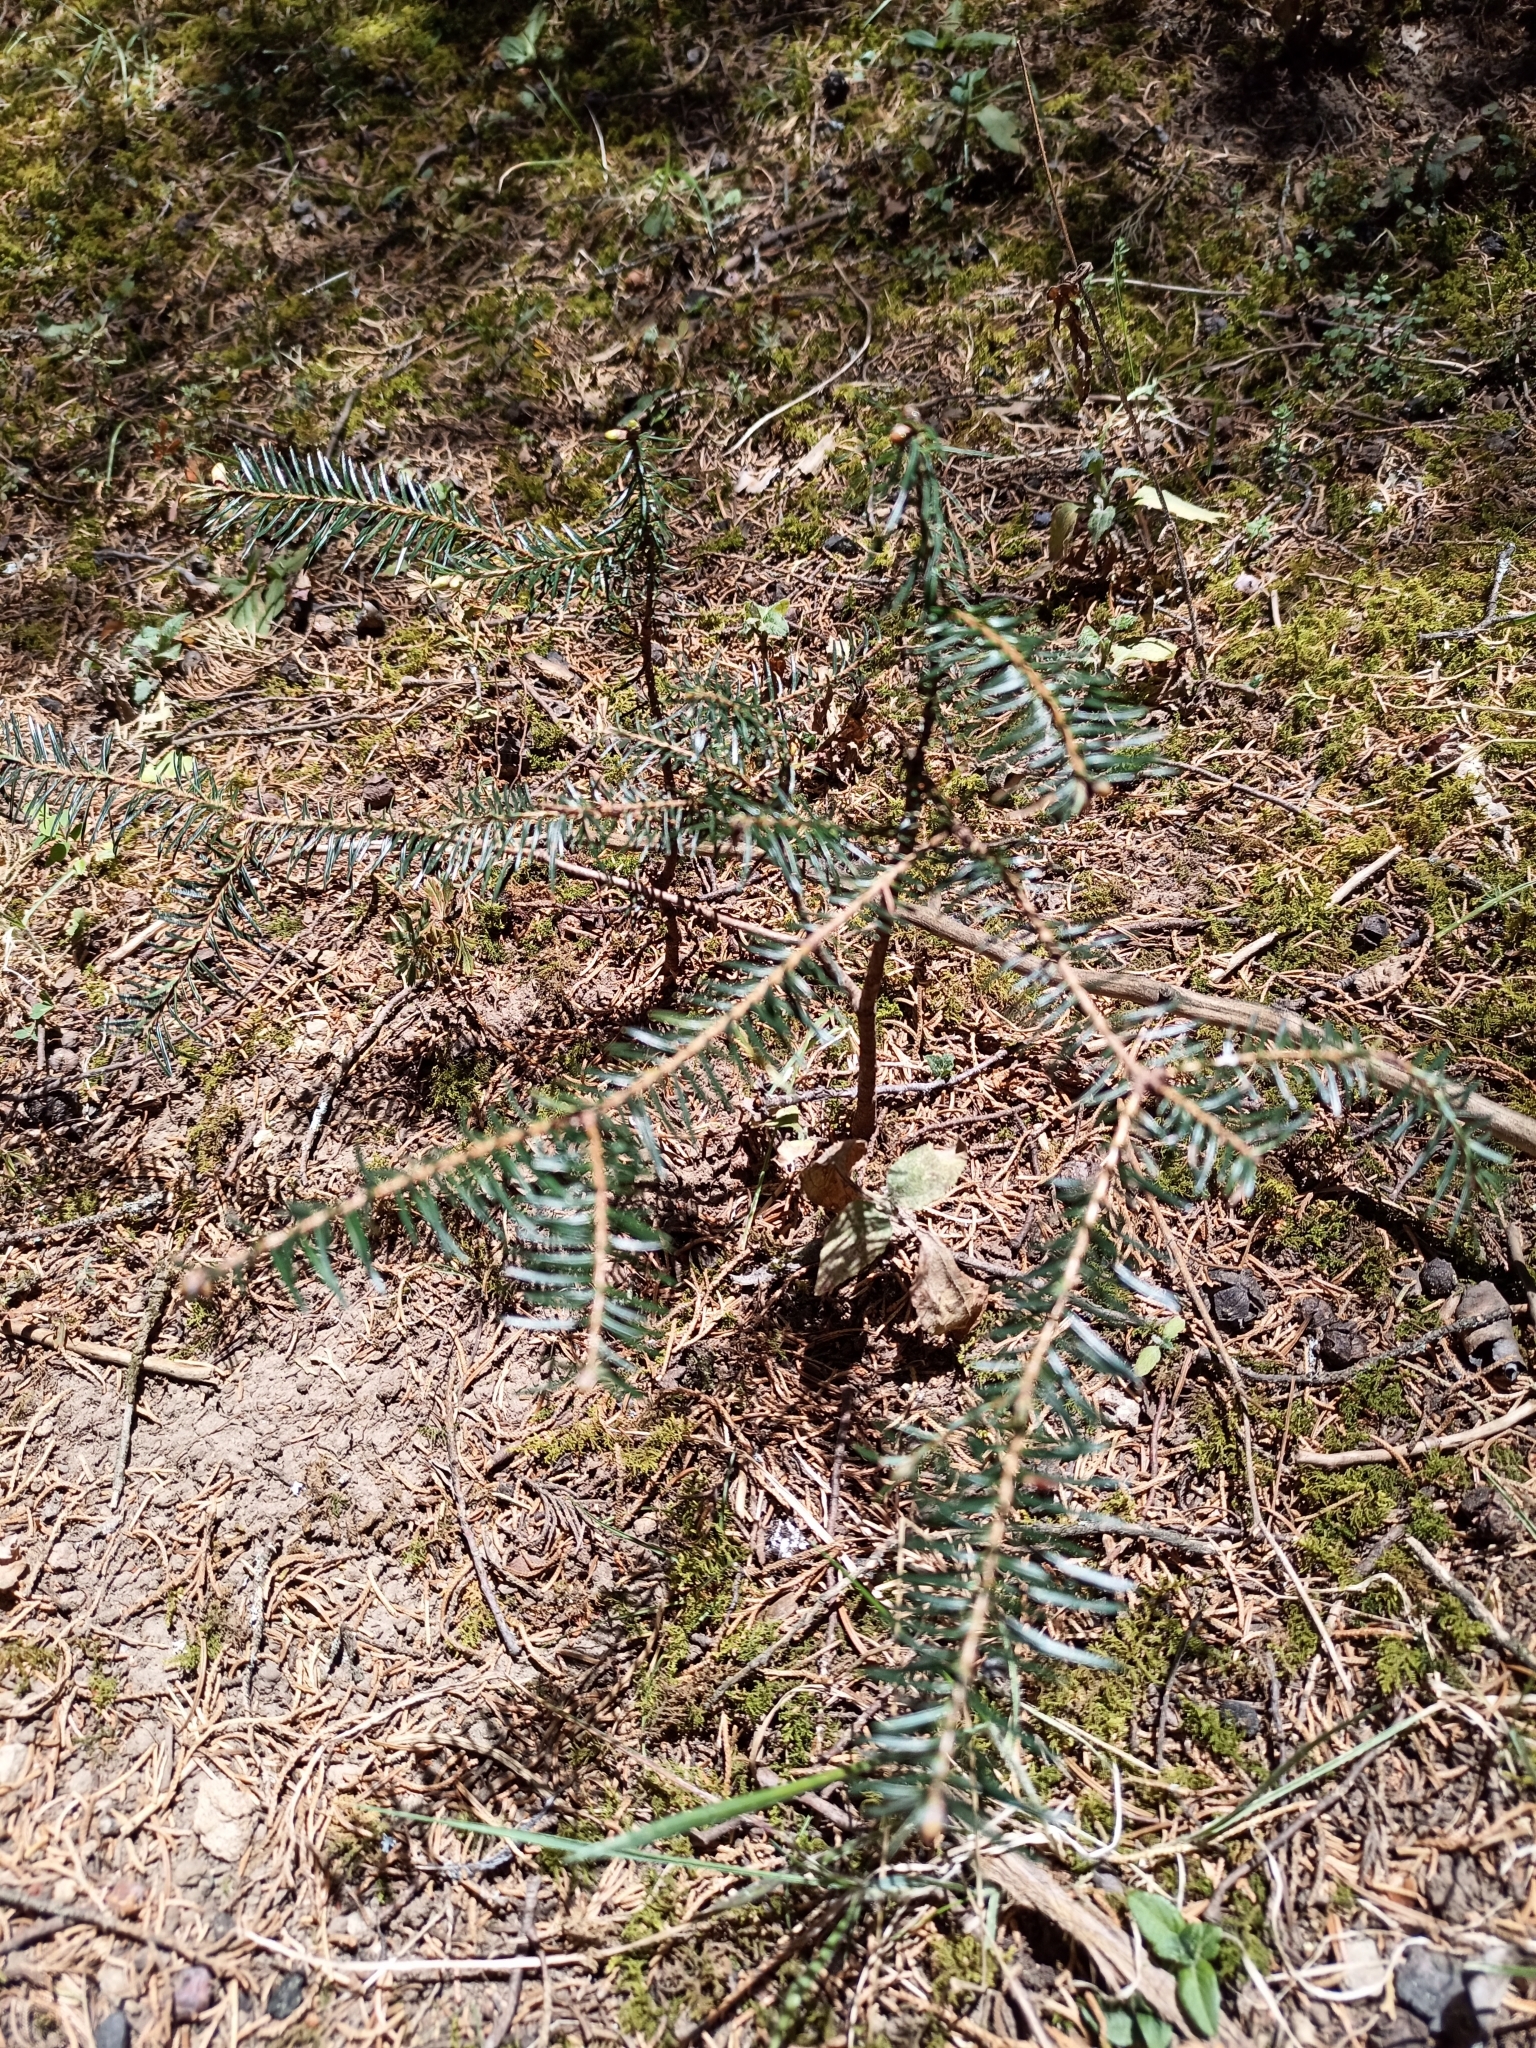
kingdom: Plantae
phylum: Tracheophyta
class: Pinopsida
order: Pinales
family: Pinaceae
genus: Abies
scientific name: Abies religiosa
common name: Sacred fir
